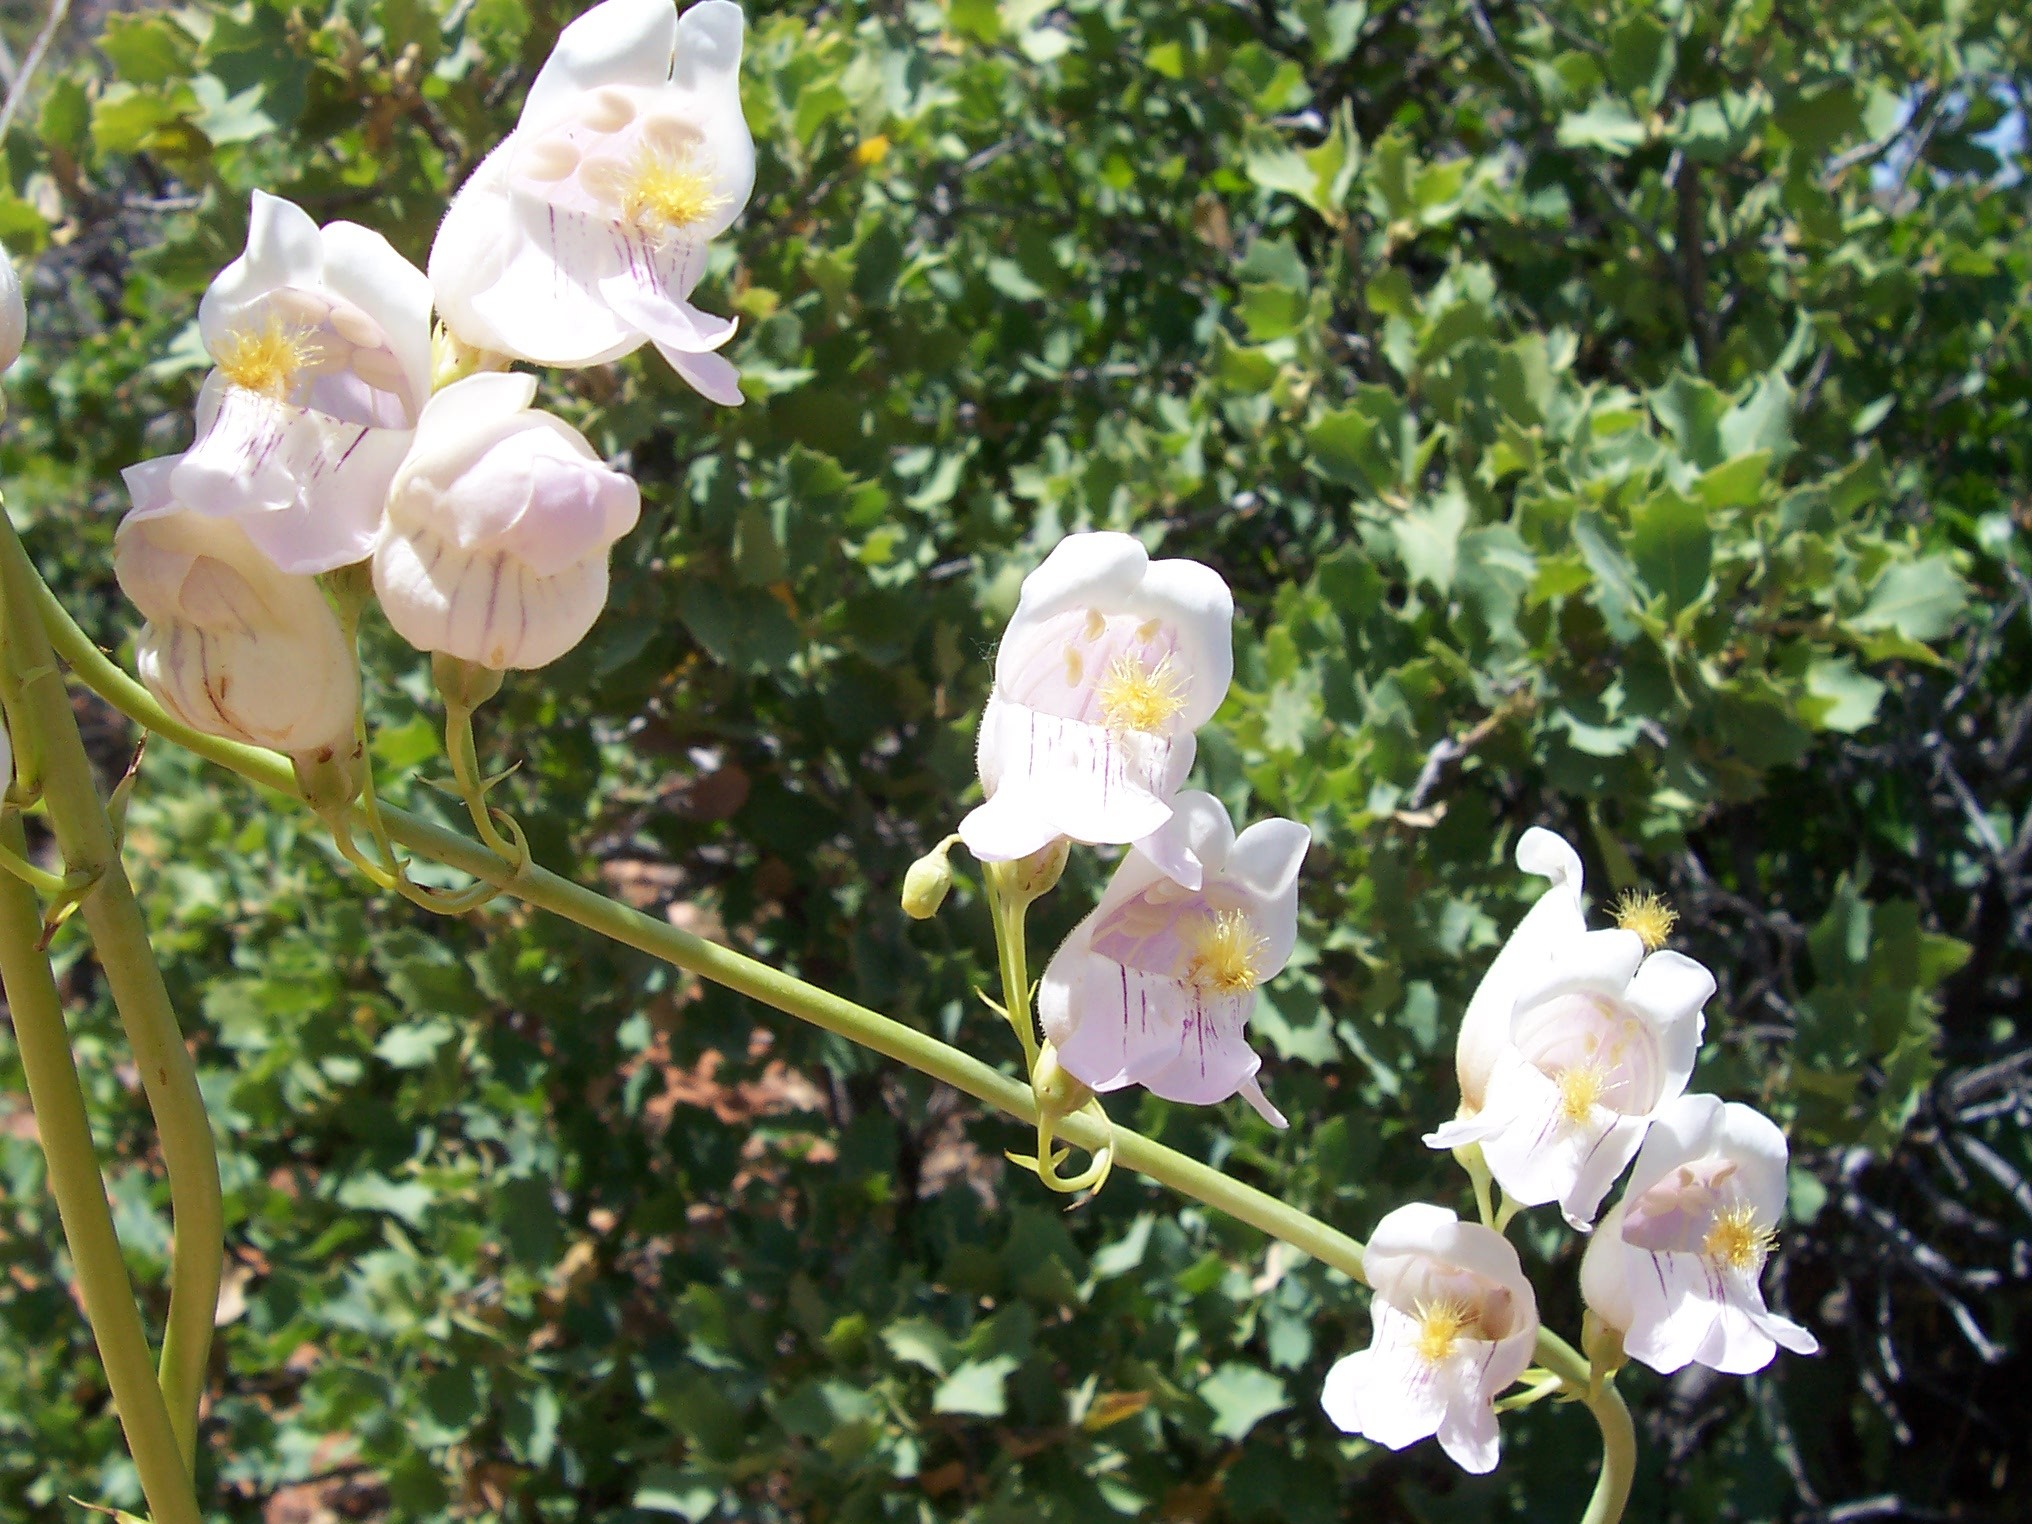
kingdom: Plantae
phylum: Tracheophyta
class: Magnoliopsida
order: Lamiales
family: Plantaginaceae
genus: Penstemon
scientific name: Penstemon palmeri
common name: Palmer penstemon
